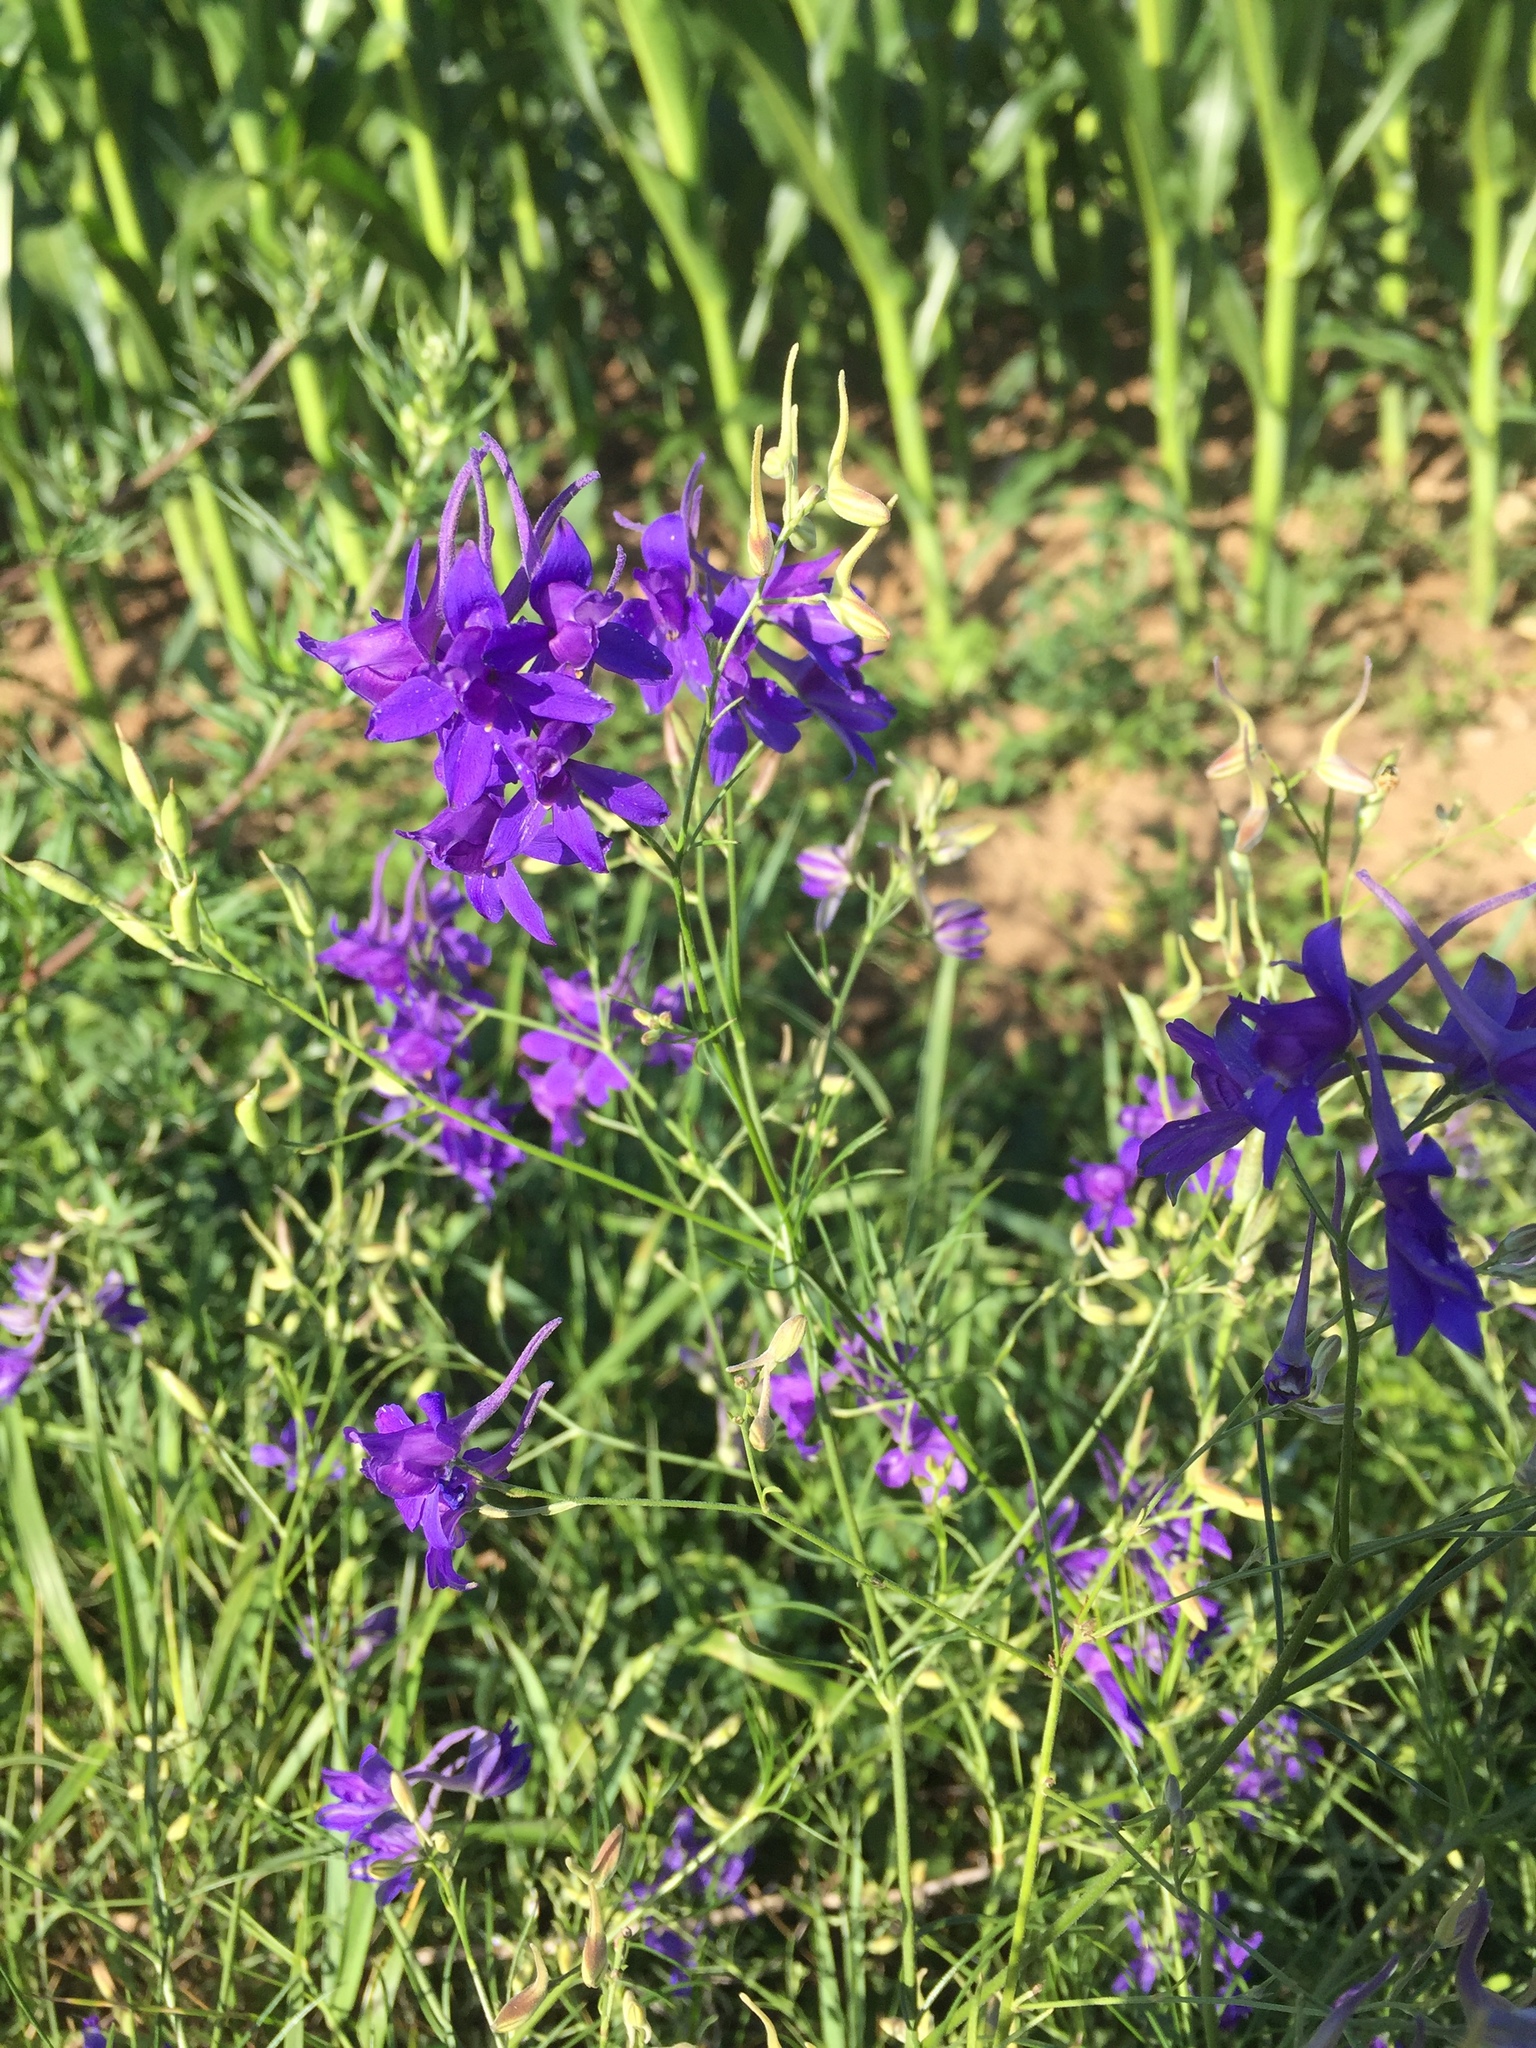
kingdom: Plantae
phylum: Tracheophyta
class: Magnoliopsida
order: Ranunculales
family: Ranunculaceae
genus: Delphinium
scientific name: Delphinium consolida
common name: Branching larkspur
